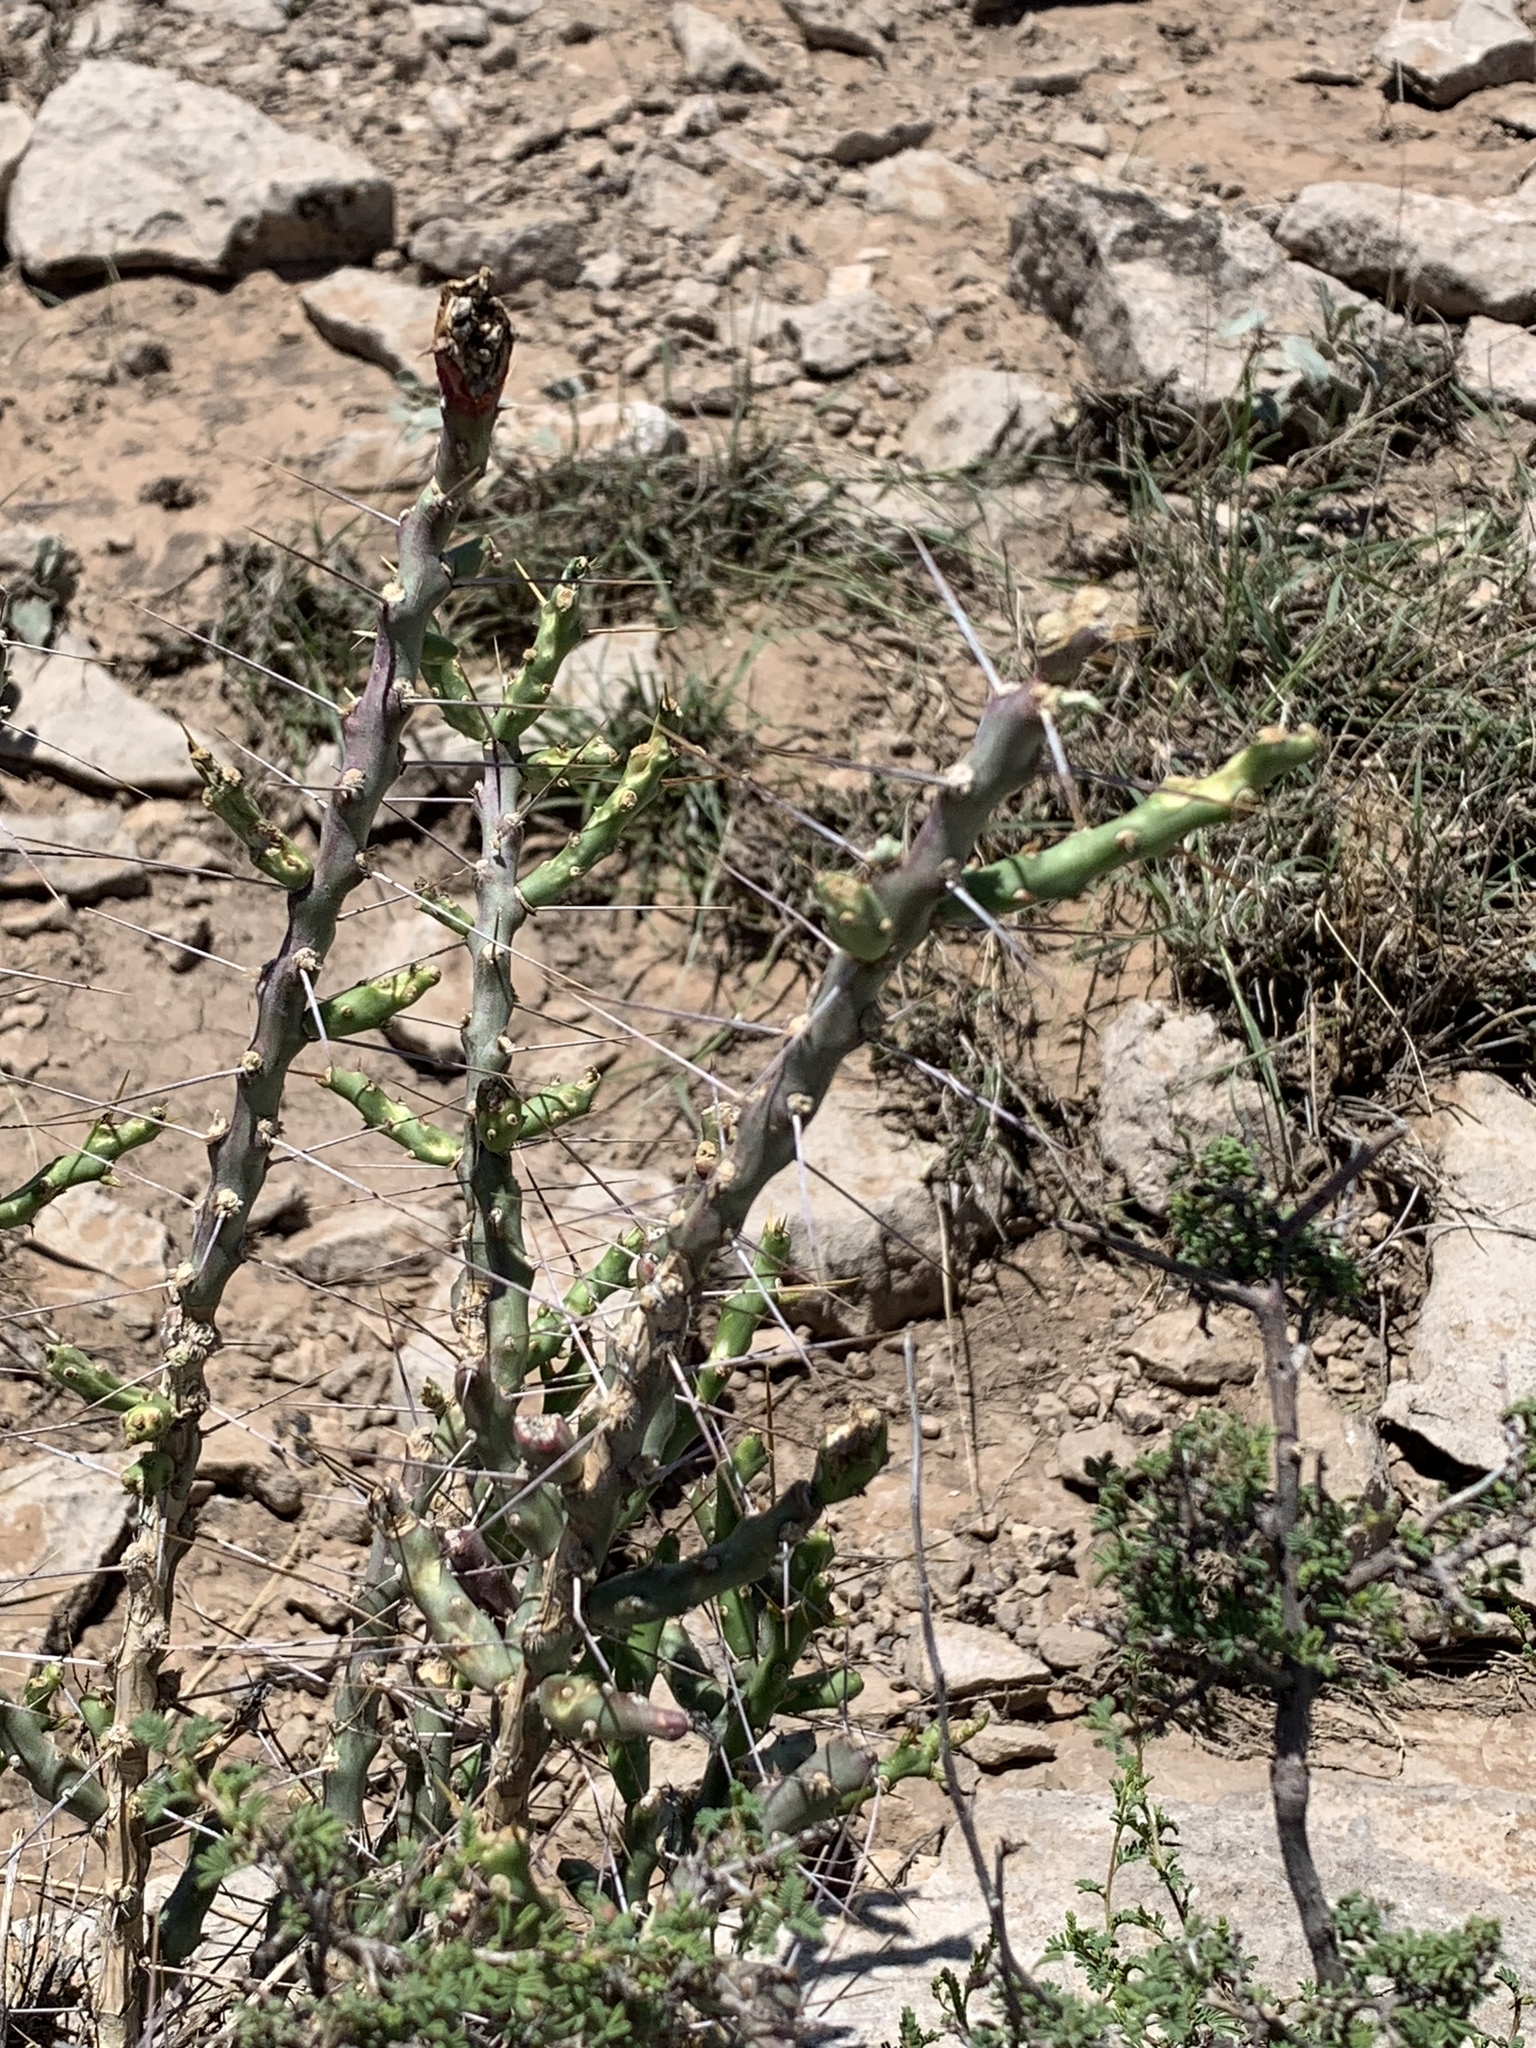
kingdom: Plantae
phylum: Tracheophyta
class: Magnoliopsida
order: Caryophyllales
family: Cactaceae
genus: Cylindropuntia
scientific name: Cylindropuntia leptocaulis
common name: Christmas cactus
